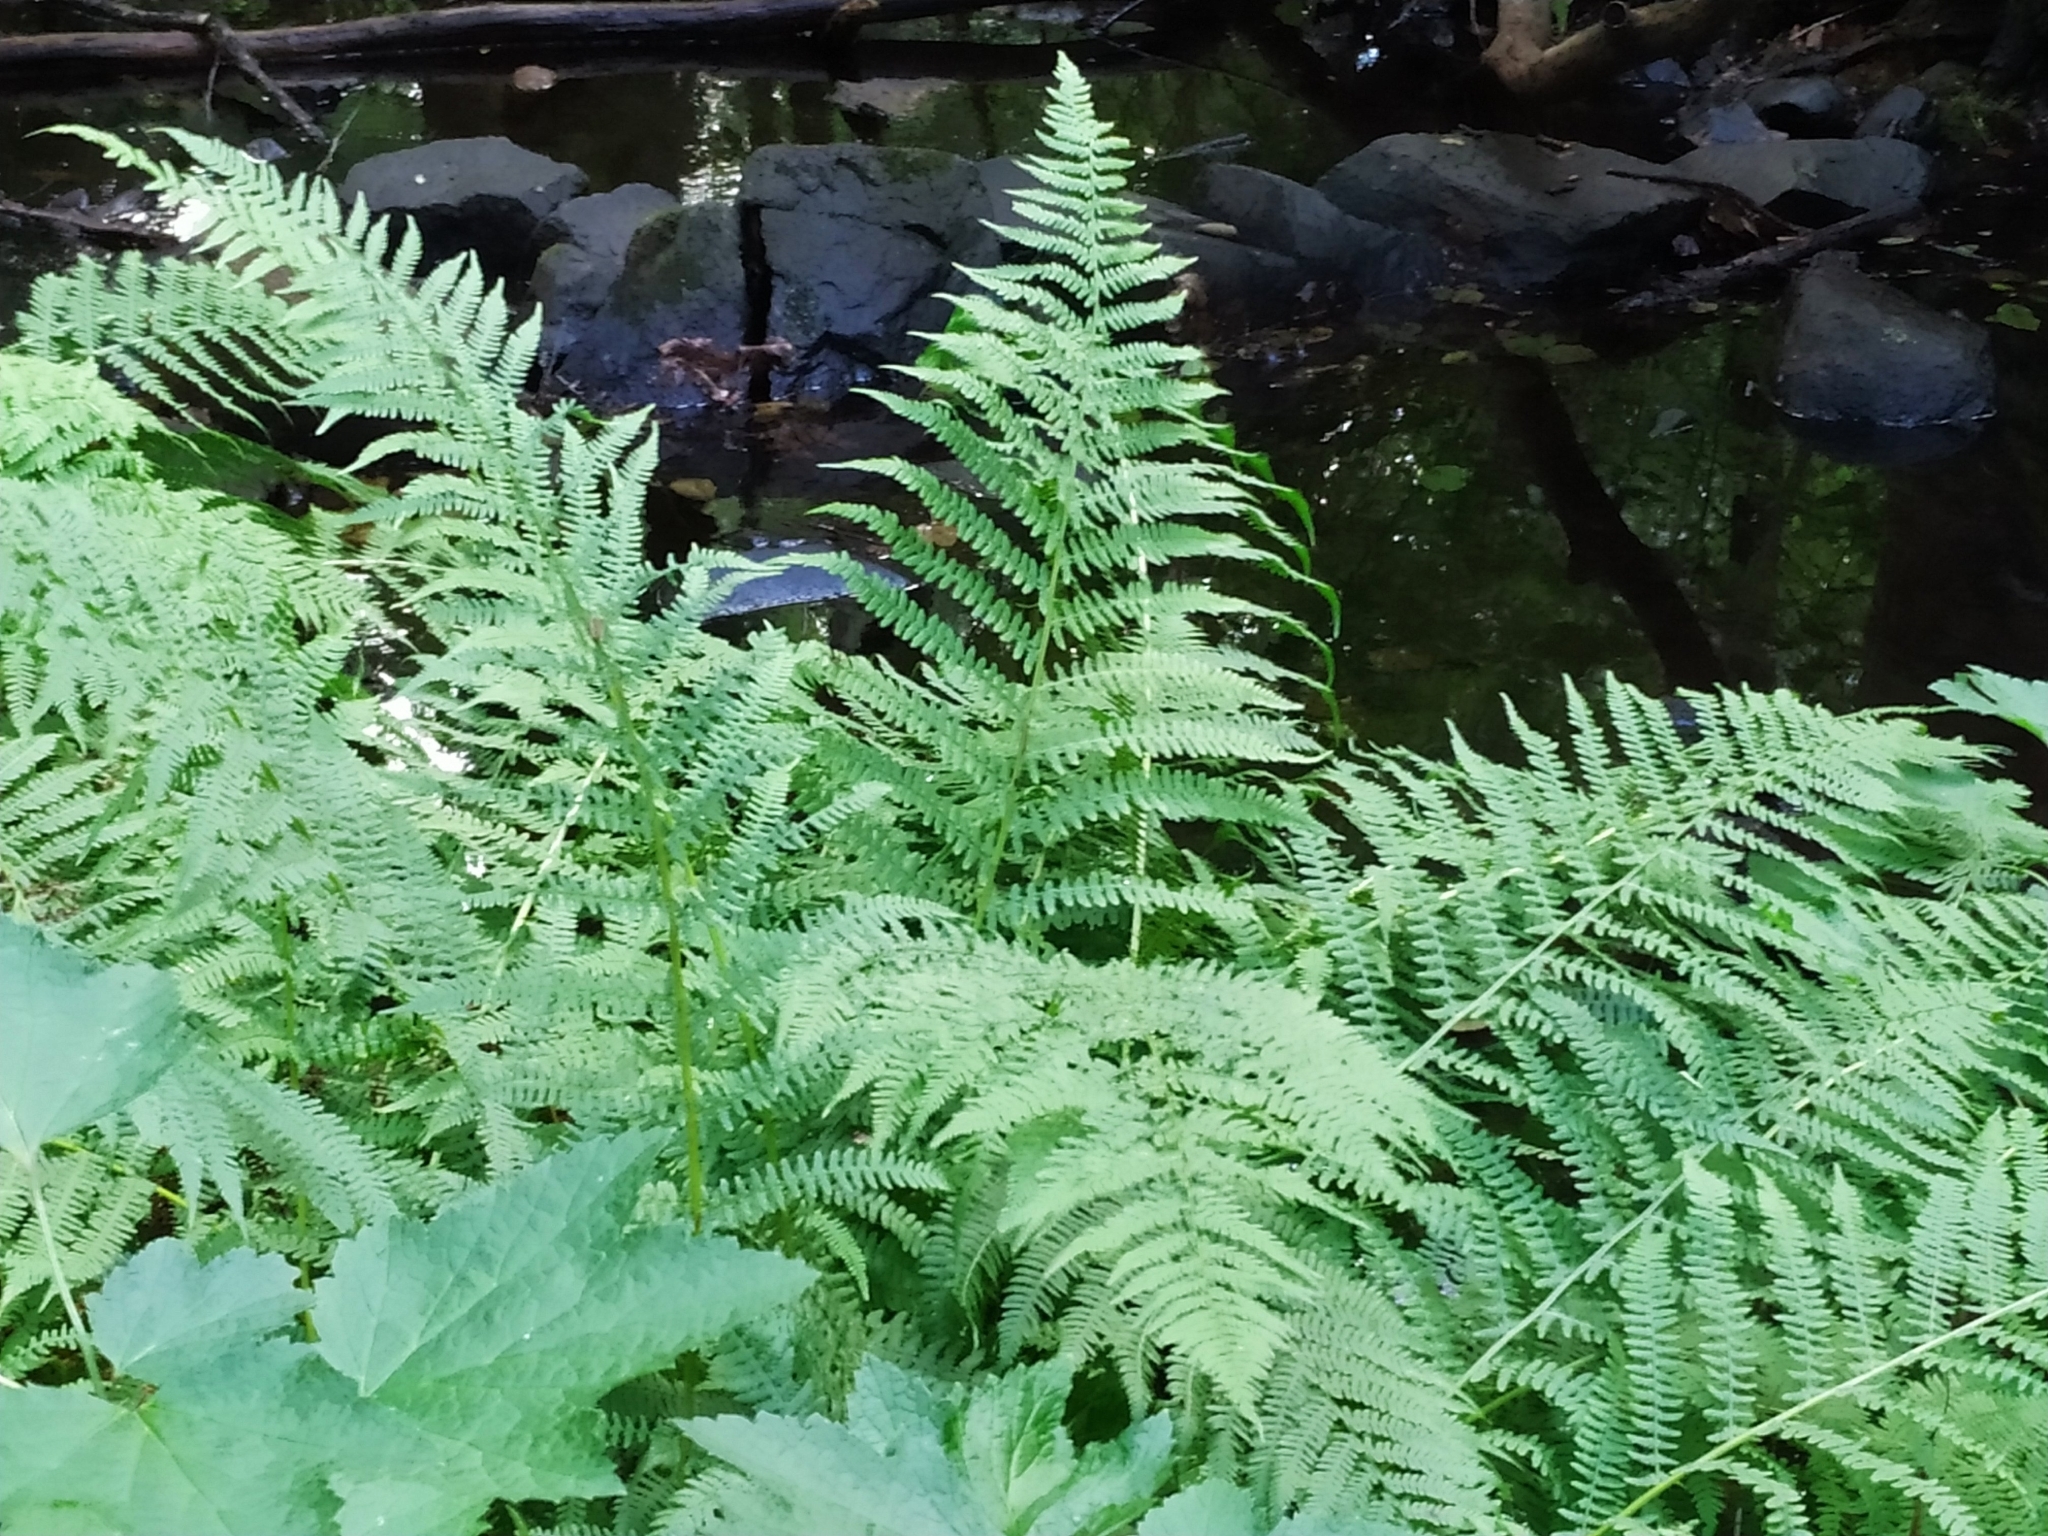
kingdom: Plantae
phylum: Tracheophyta
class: Polypodiopsida
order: Polypodiales
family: Athyriaceae
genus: Athyrium
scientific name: Athyrium filix-femina
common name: Lady fern
